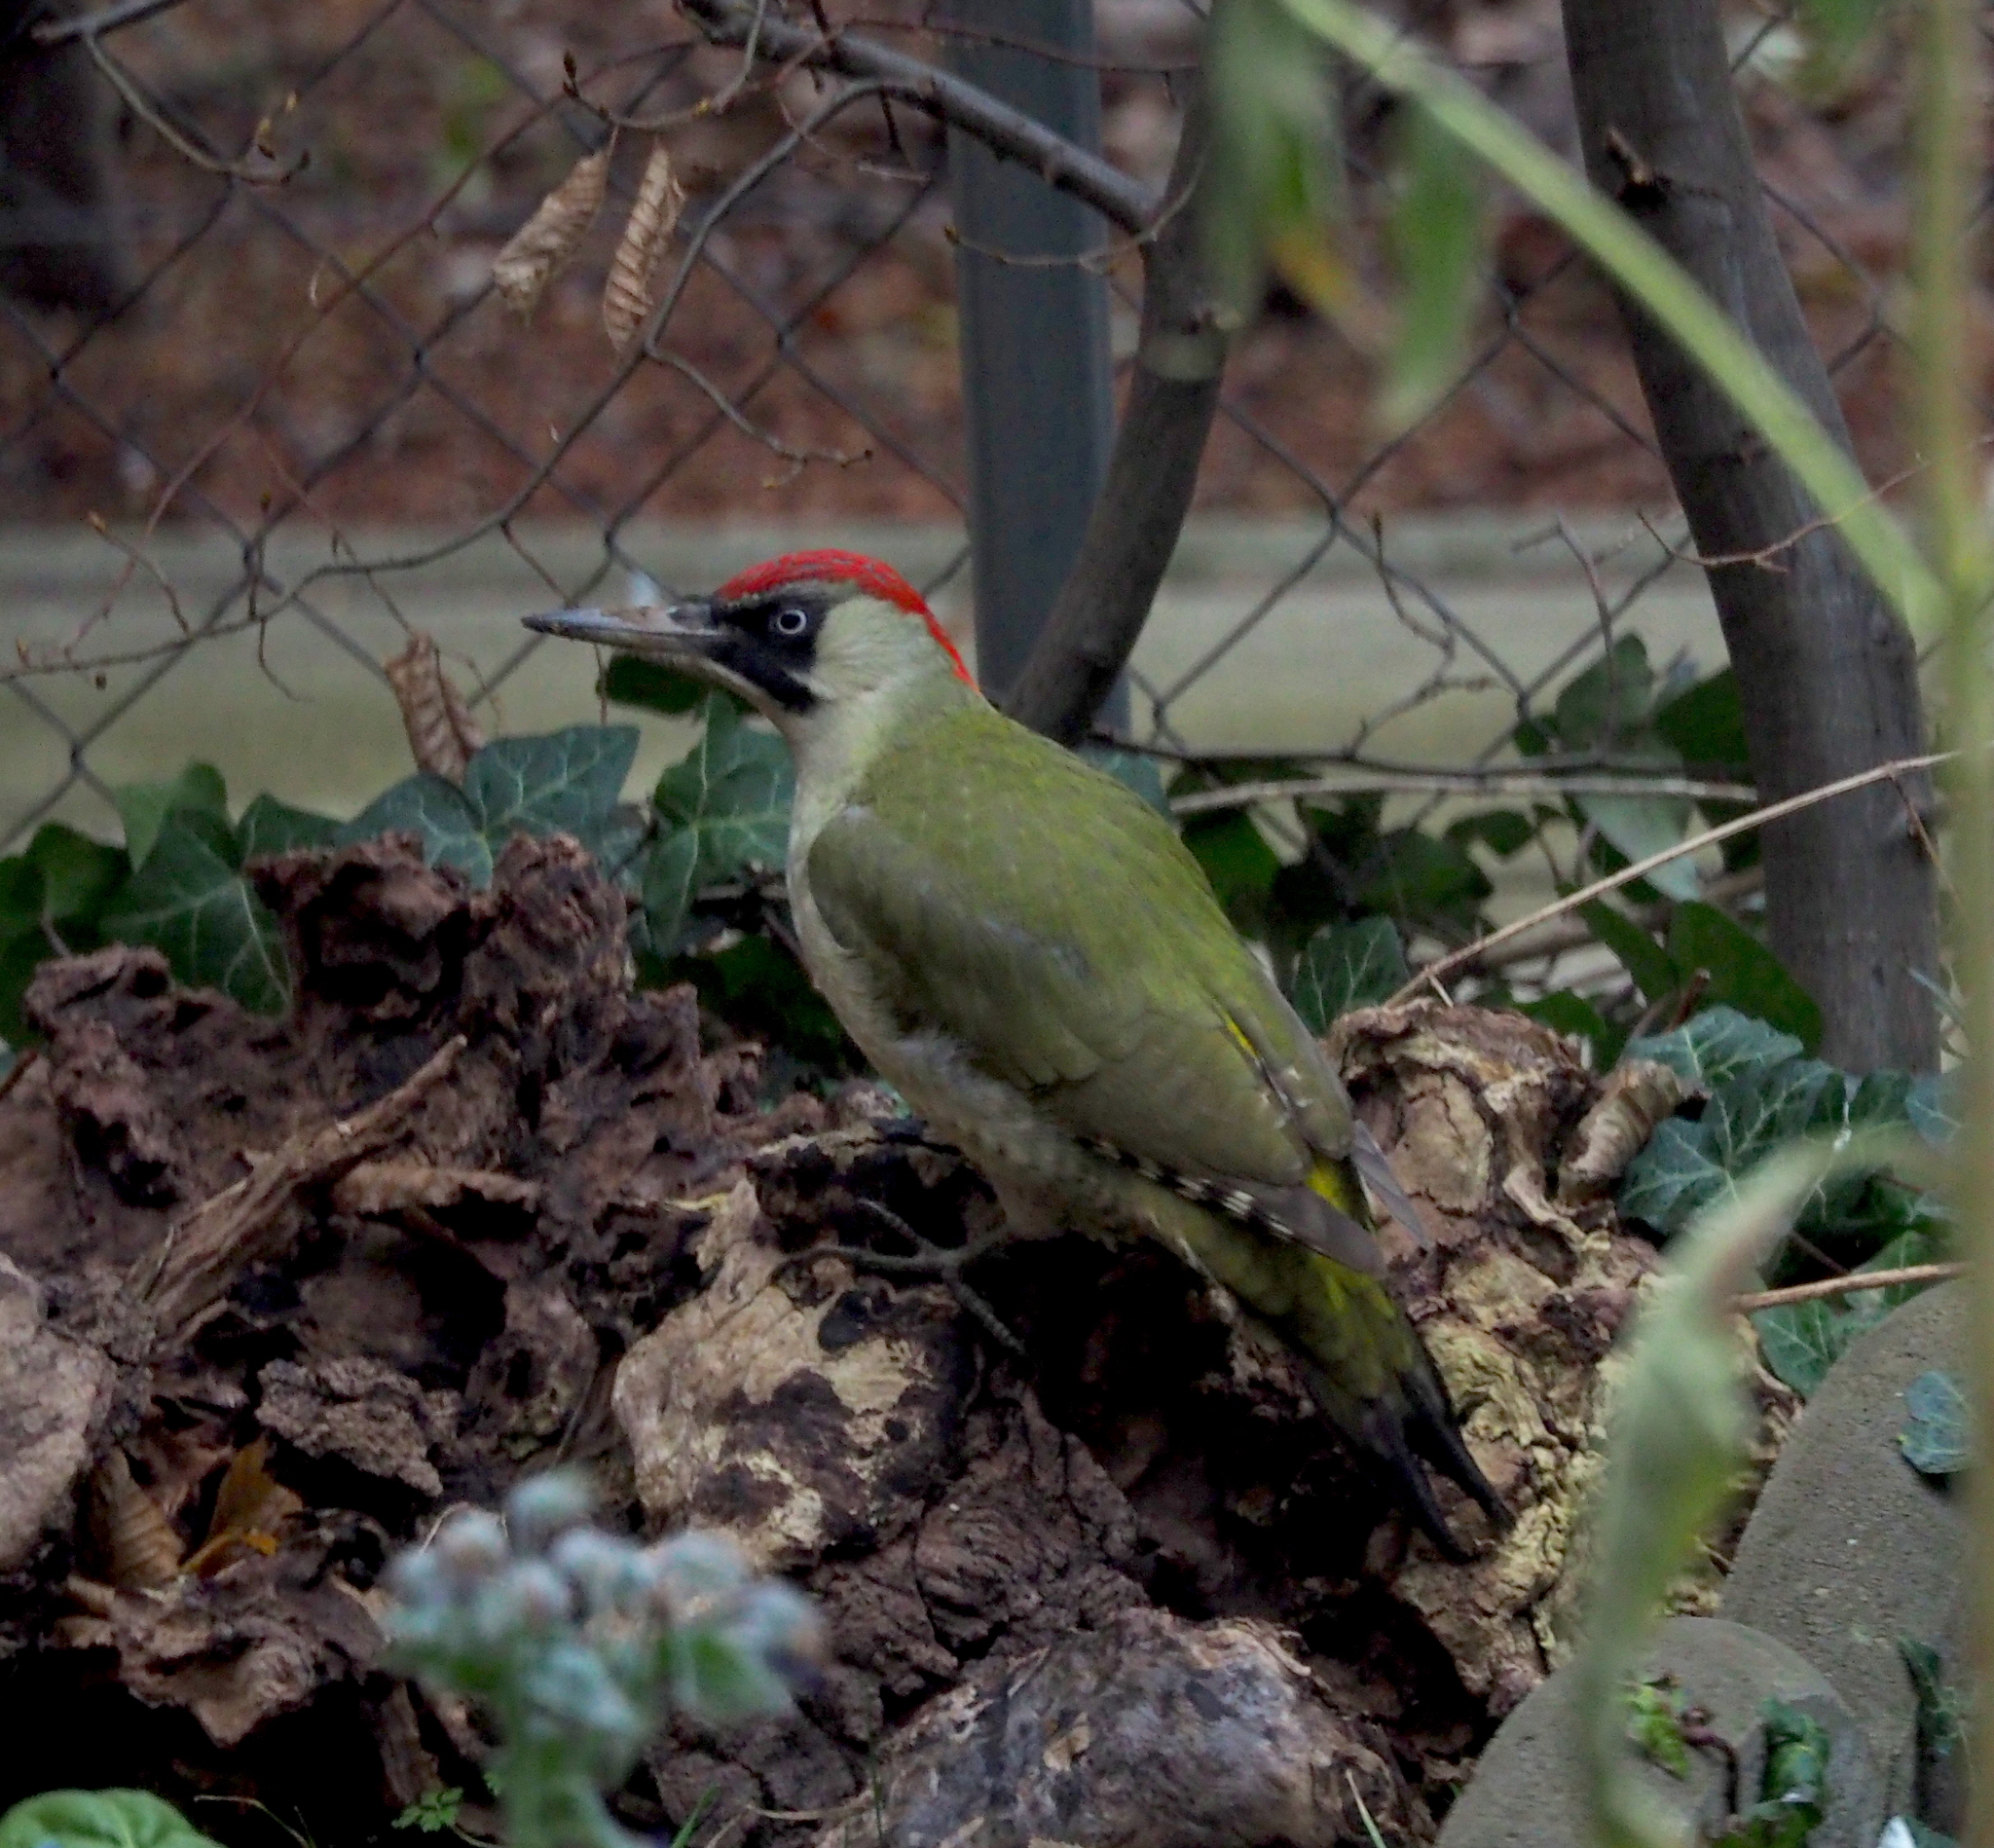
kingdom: Animalia
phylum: Chordata
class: Aves
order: Piciformes
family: Picidae
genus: Picus
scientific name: Picus viridis
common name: European green woodpecker
